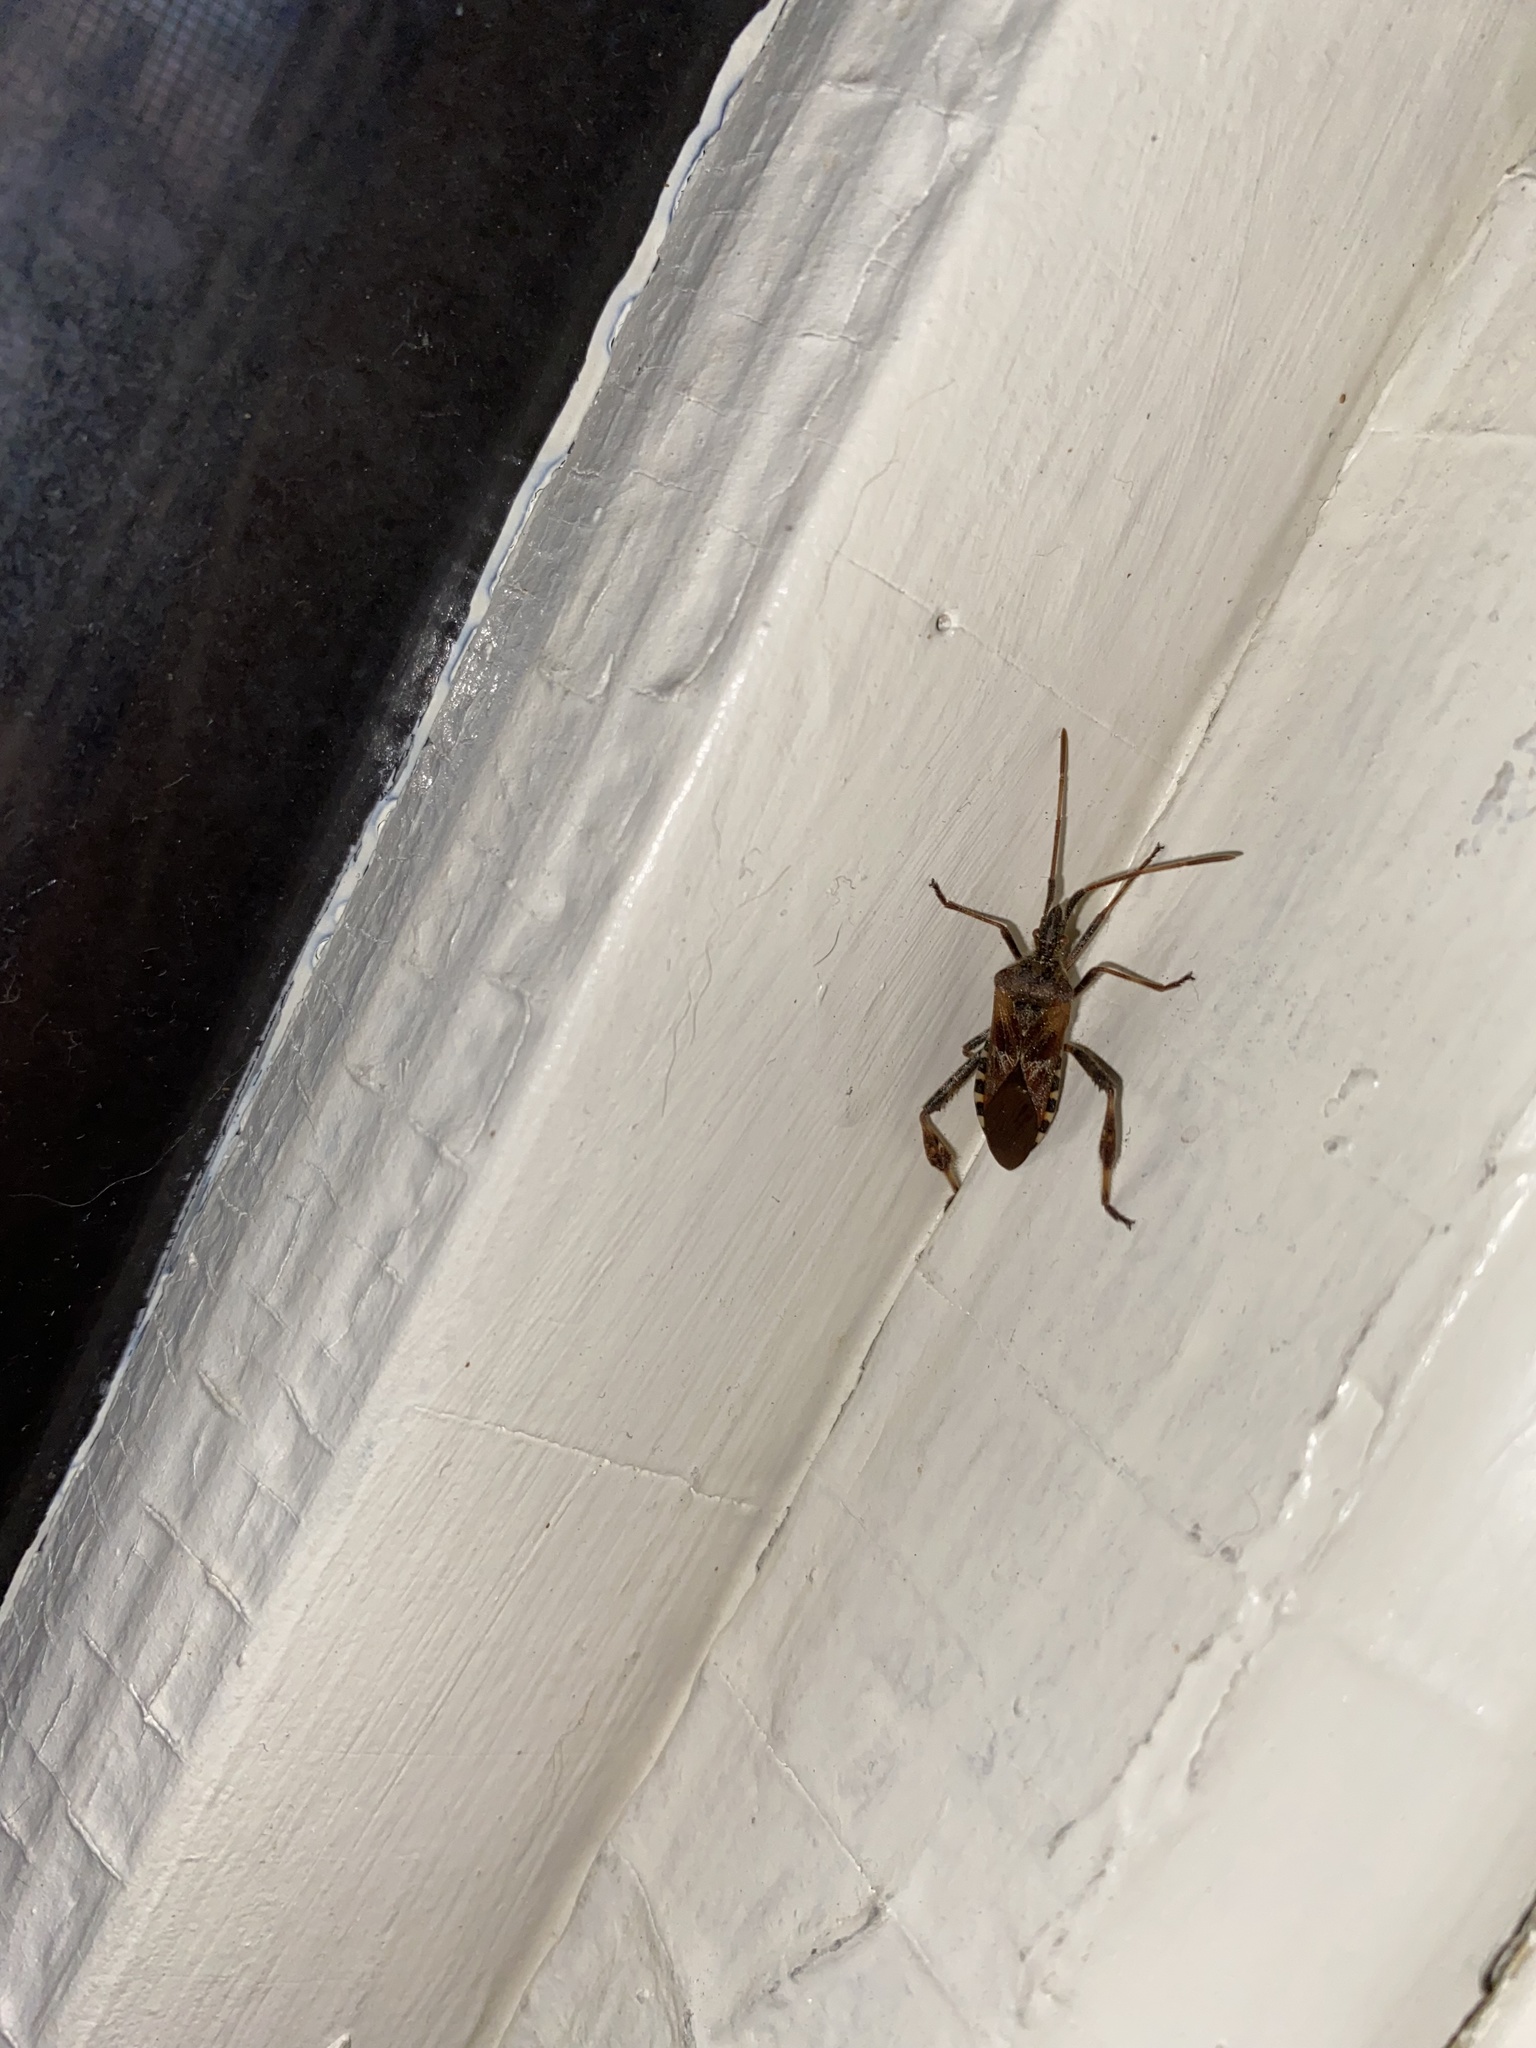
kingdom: Animalia
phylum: Arthropoda
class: Insecta
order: Hemiptera
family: Coreidae
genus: Leptoglossus
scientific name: Leptoglossus occidentalis
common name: Western conifer-seed bug
